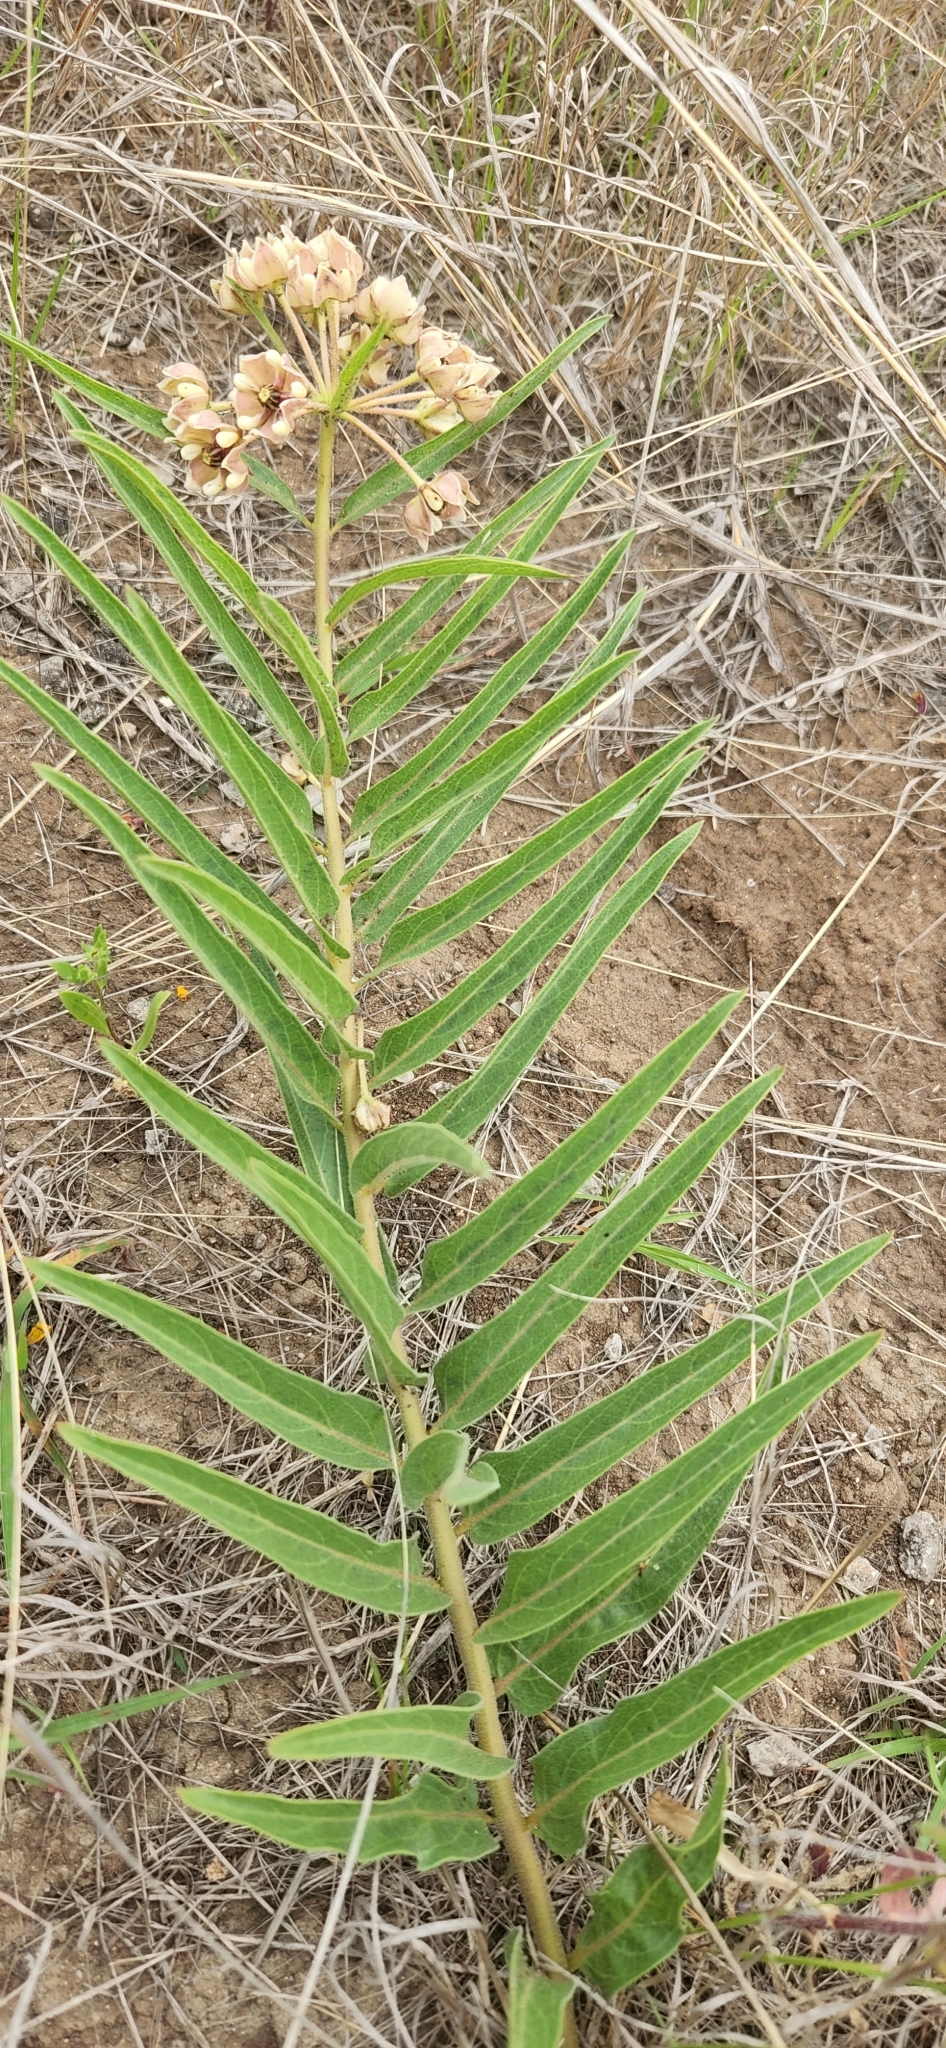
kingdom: Plantae
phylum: Tracheophyta
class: Magnoliopsida
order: Gentianales
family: Apocynaceae
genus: Asclepias
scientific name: Asclepias asperula
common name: Antelope horns
